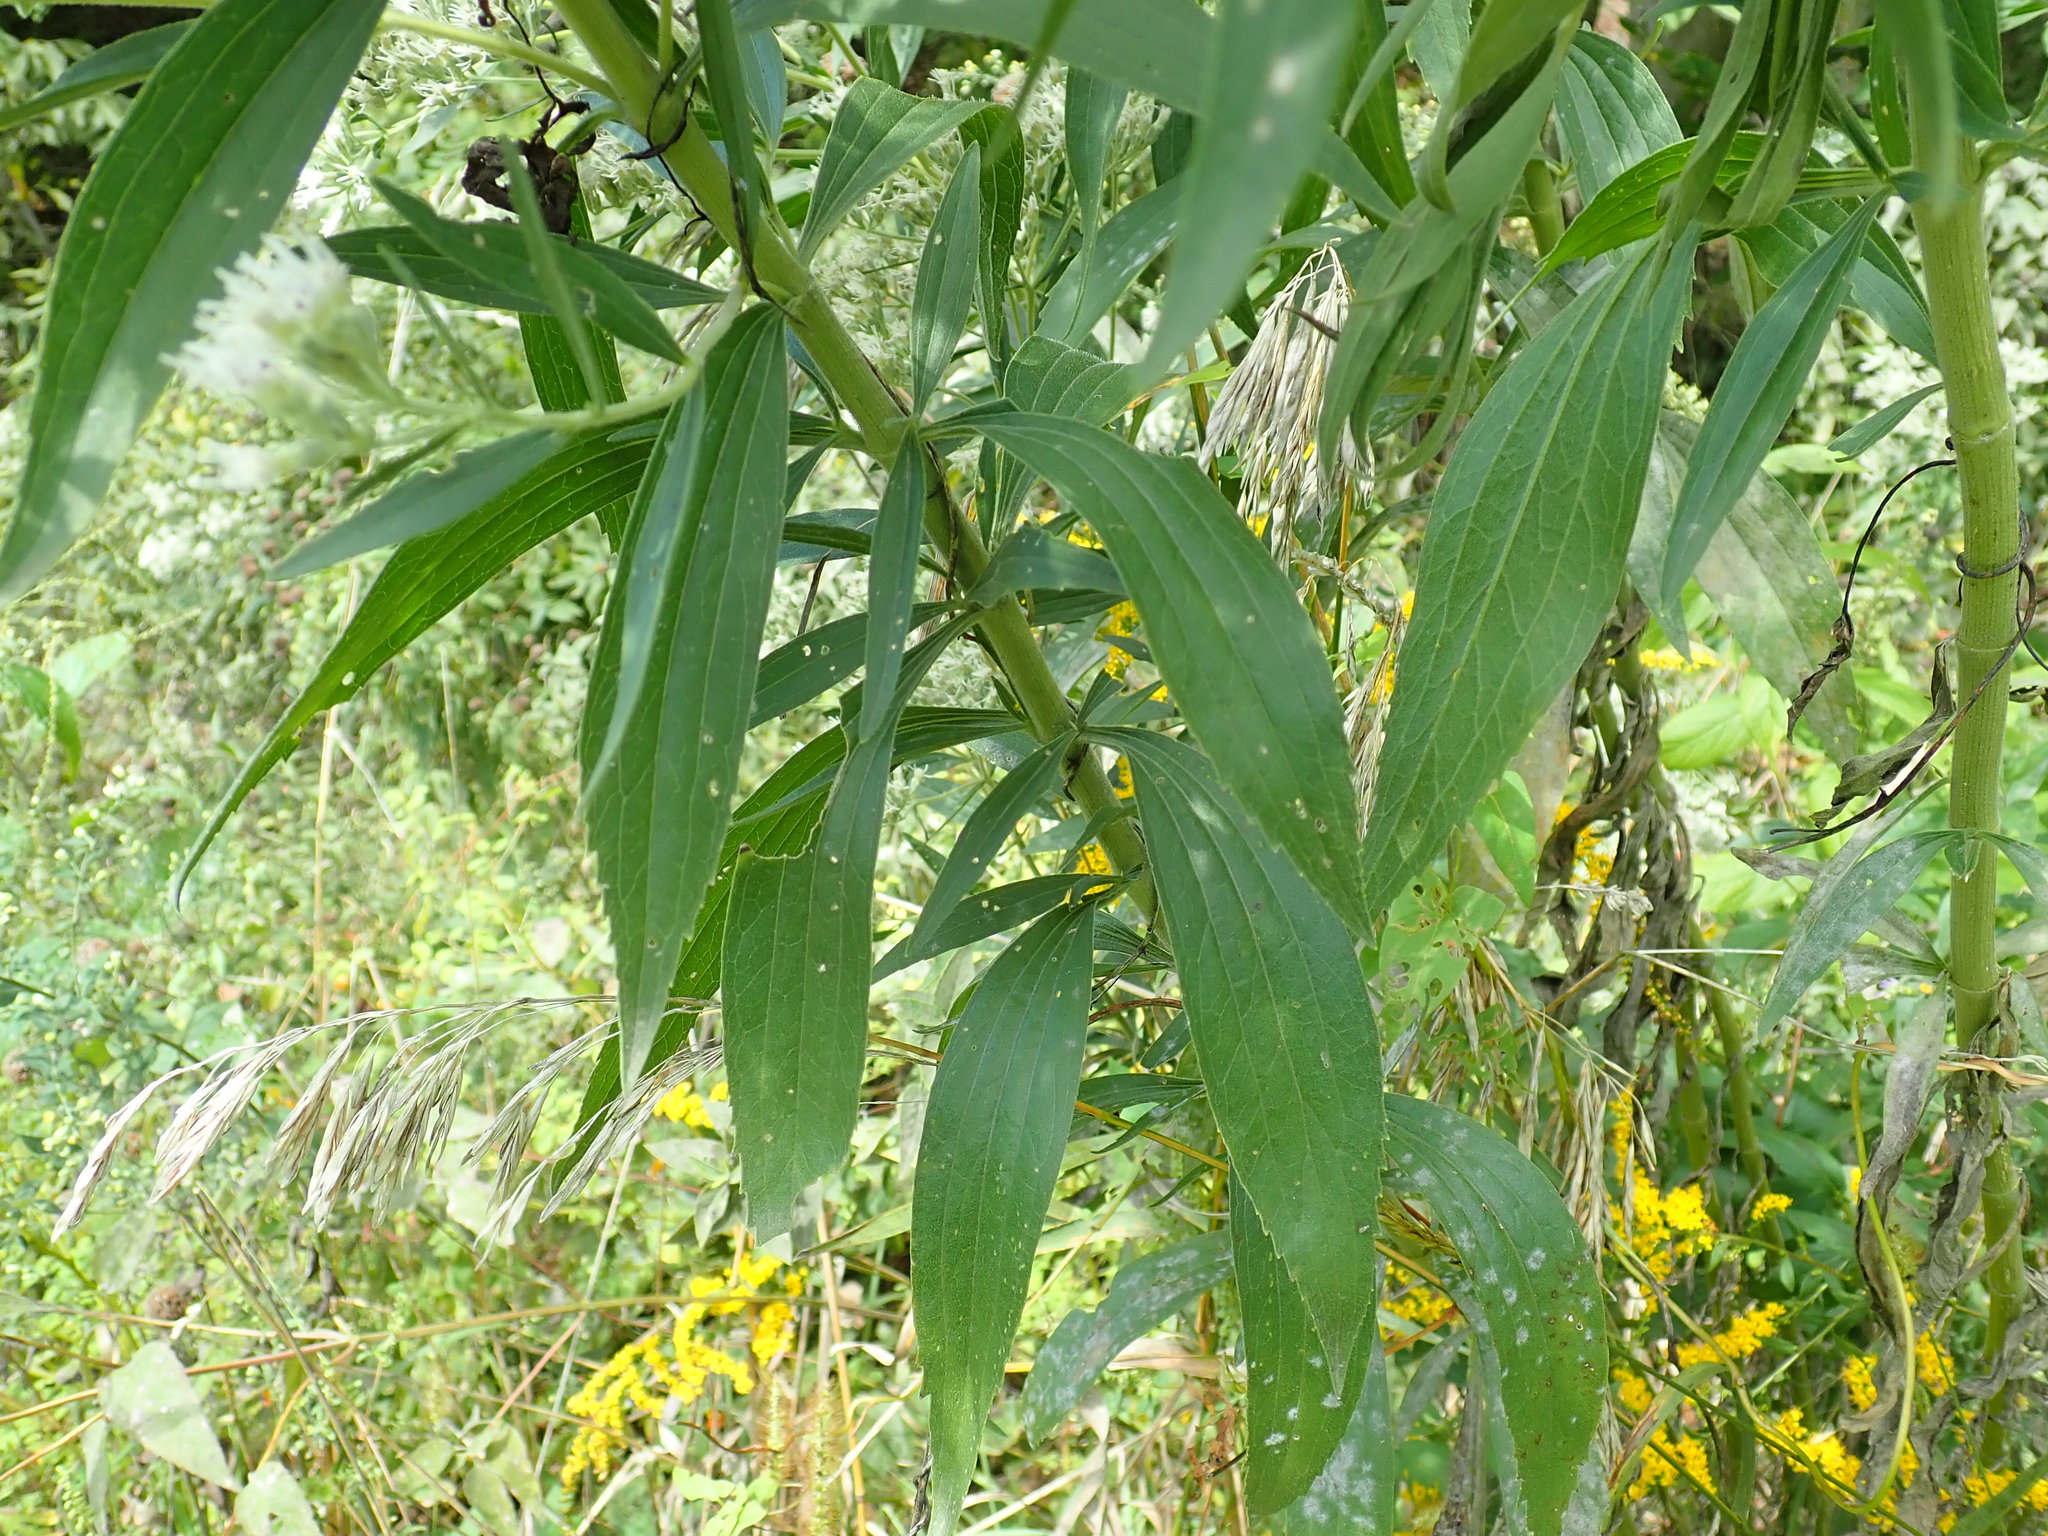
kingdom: Plantae
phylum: Tracheophyta
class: Magnoliopsida
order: Asterales
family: Asteraceae
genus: Eupatorium
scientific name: Eupatorium altissimum
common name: Tall thoroughwort
